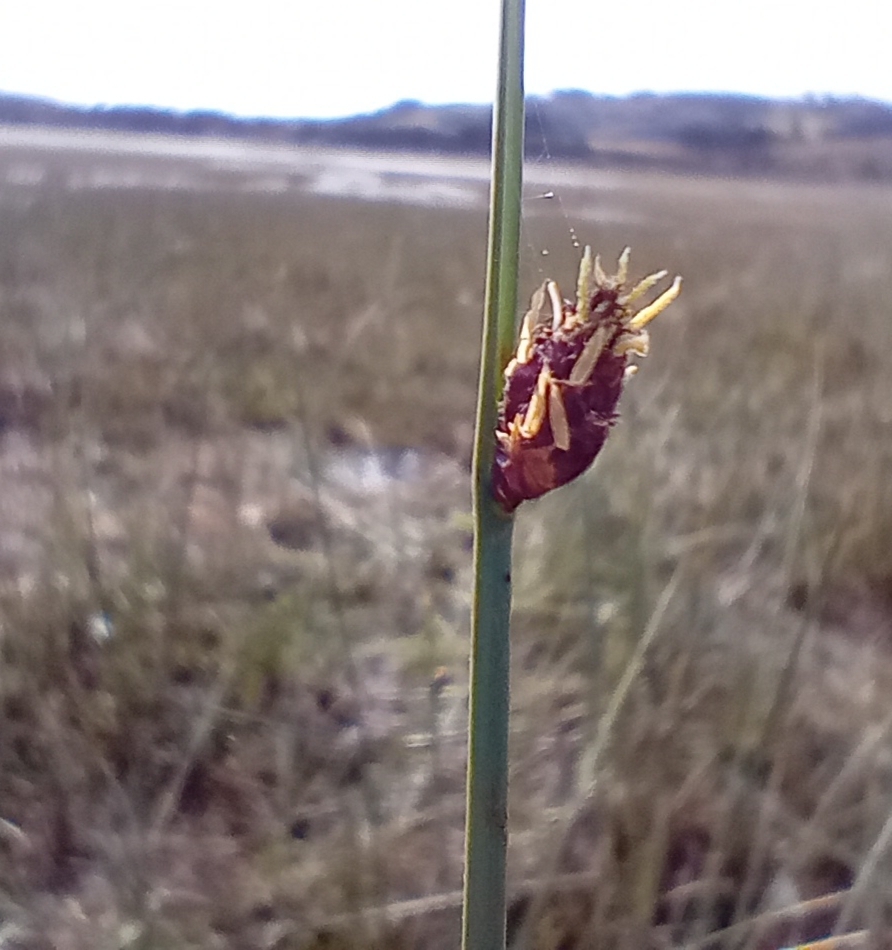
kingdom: Plantae
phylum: Tracheophyta
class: Liliopsida
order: Poales
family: Cyperaceae
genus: Schoenoplectus
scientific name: Schoenoplectus pungens
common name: Sharp club-rush
